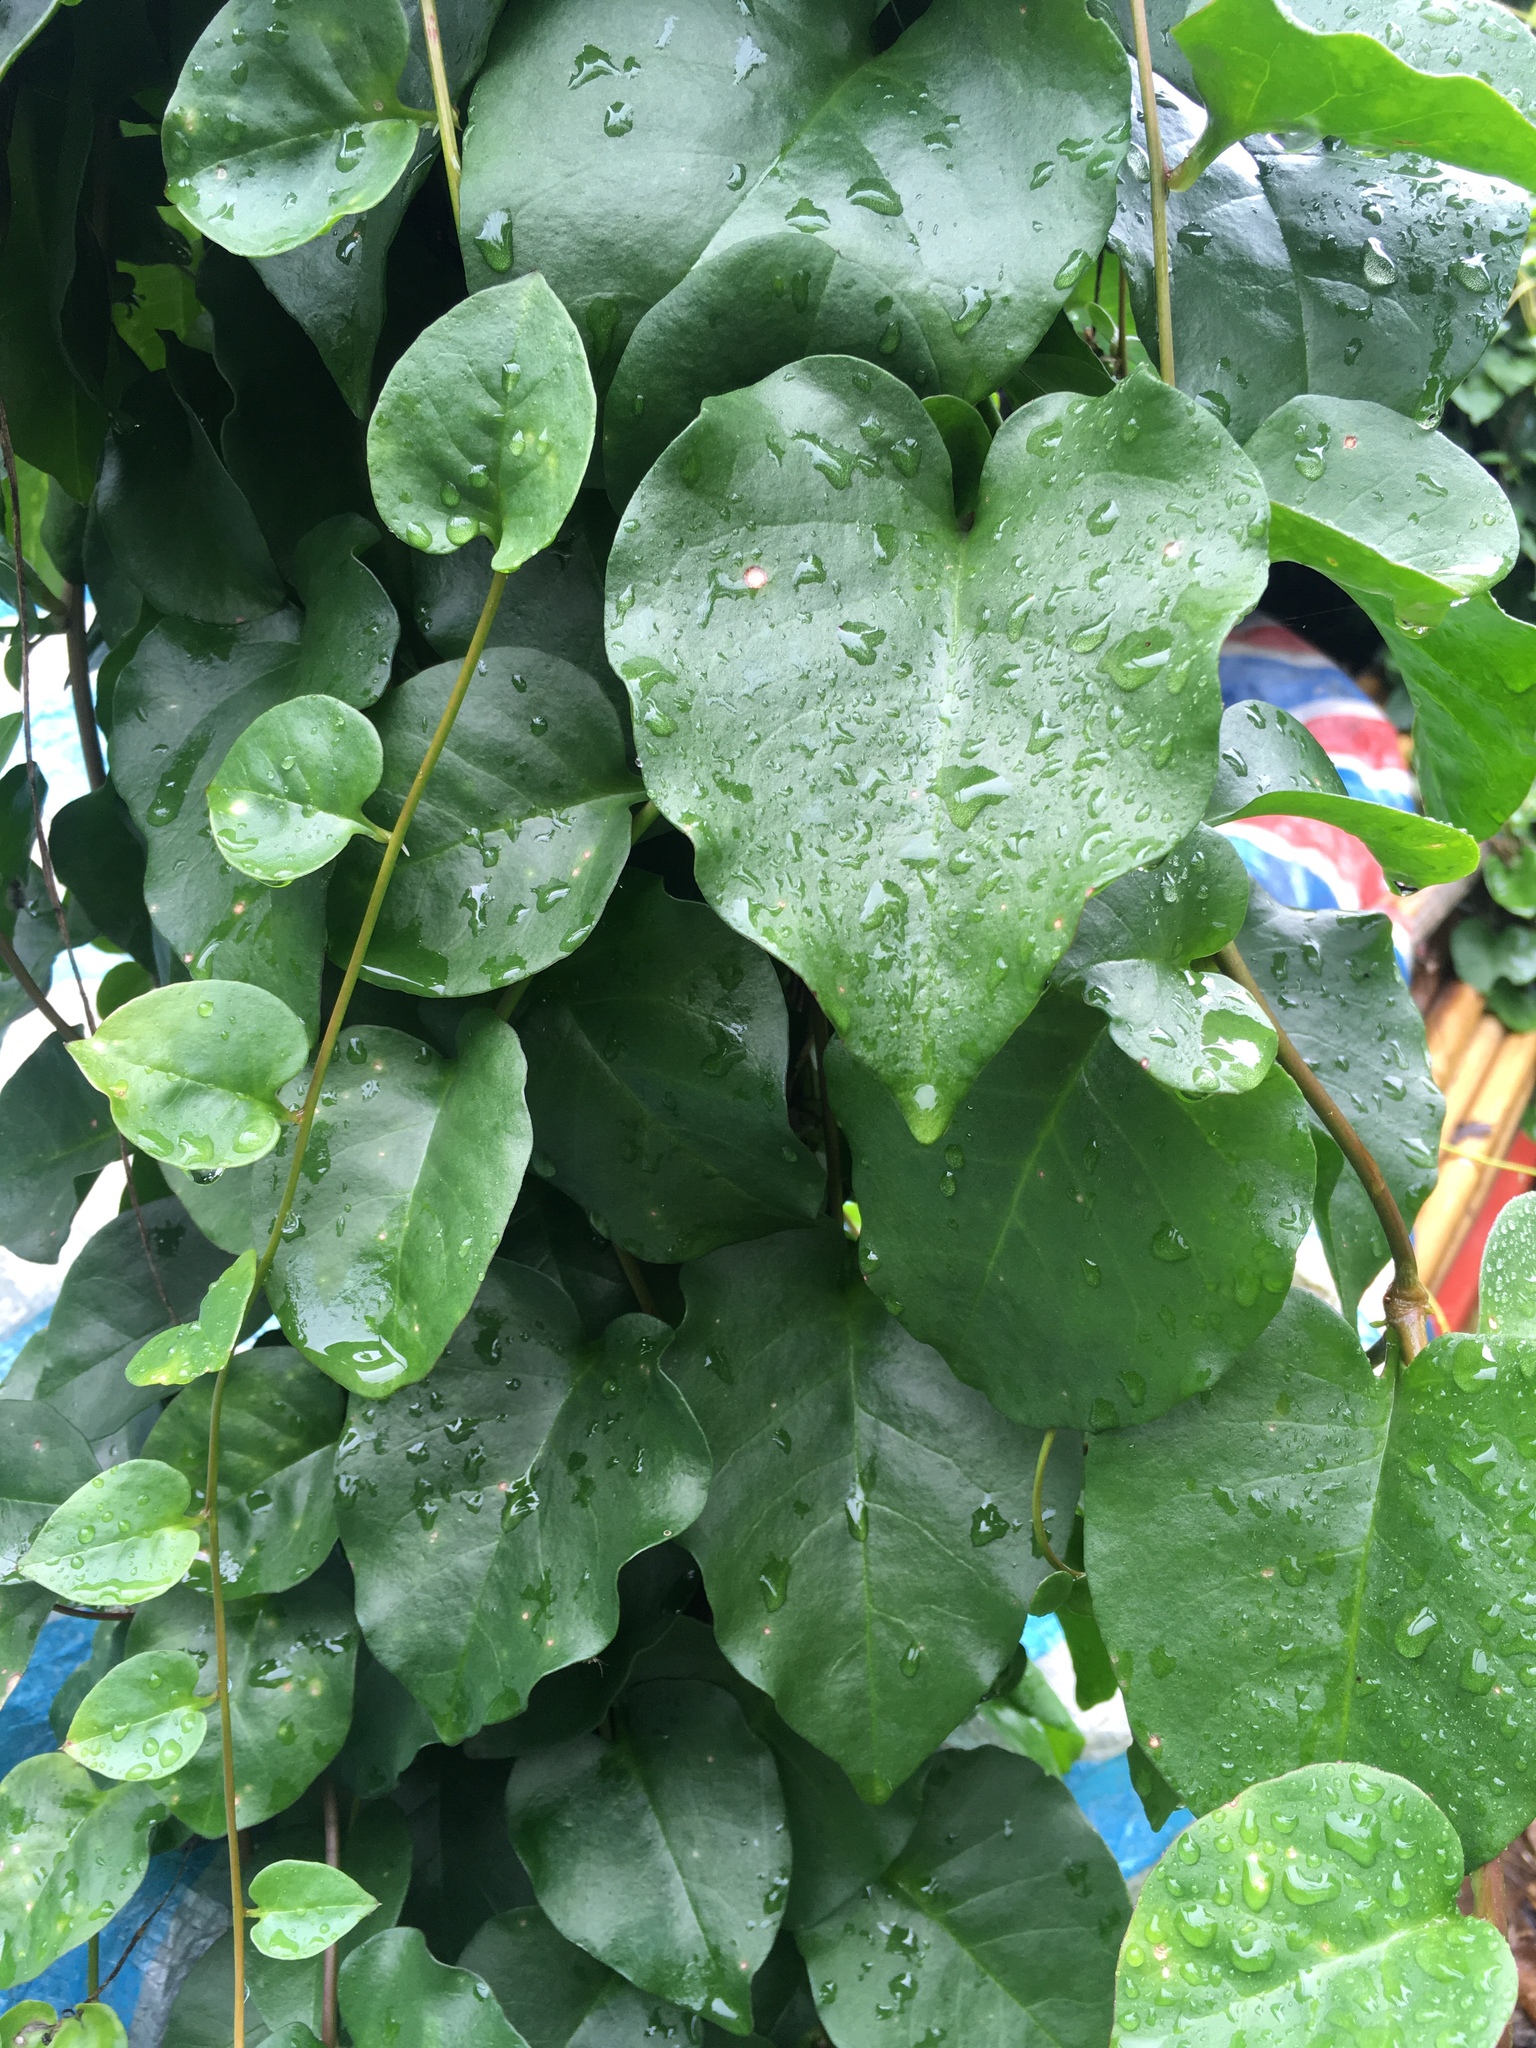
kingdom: Plantae
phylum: Tracheophyta
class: Magnoliopsida
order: Caryophyllales
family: Basellaceae
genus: Anredera
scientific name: Anredera cordifolia
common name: Heartleaf madeiravine
